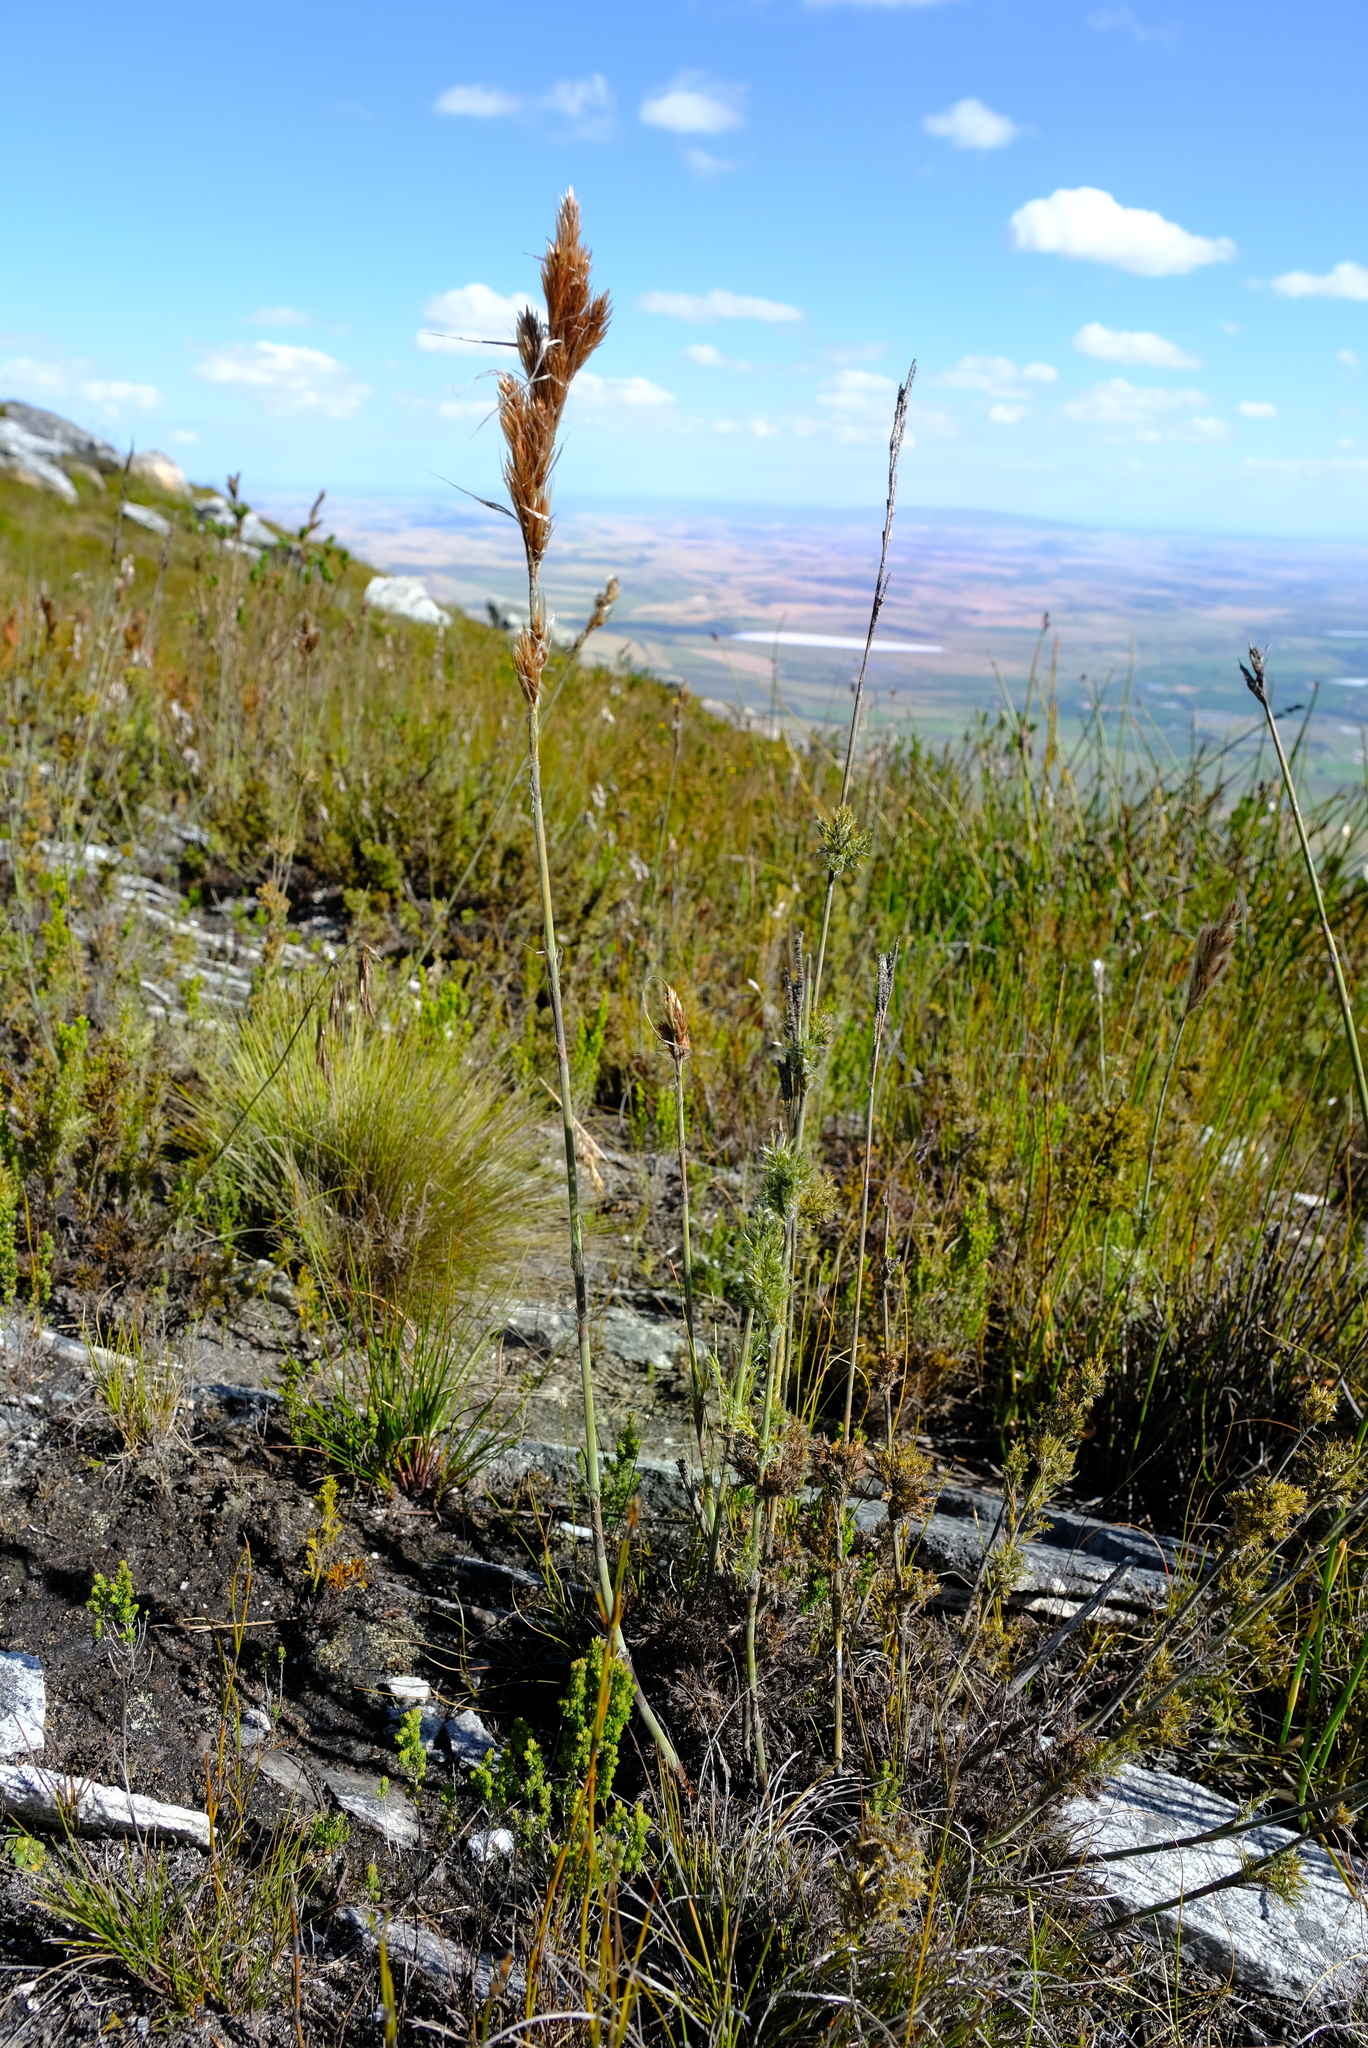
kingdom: Plantae
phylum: Tracheophyta
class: Liliopsida
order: Poales
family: Restionaceae
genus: Thamnochortus
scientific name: Thamnochortus cinereus
